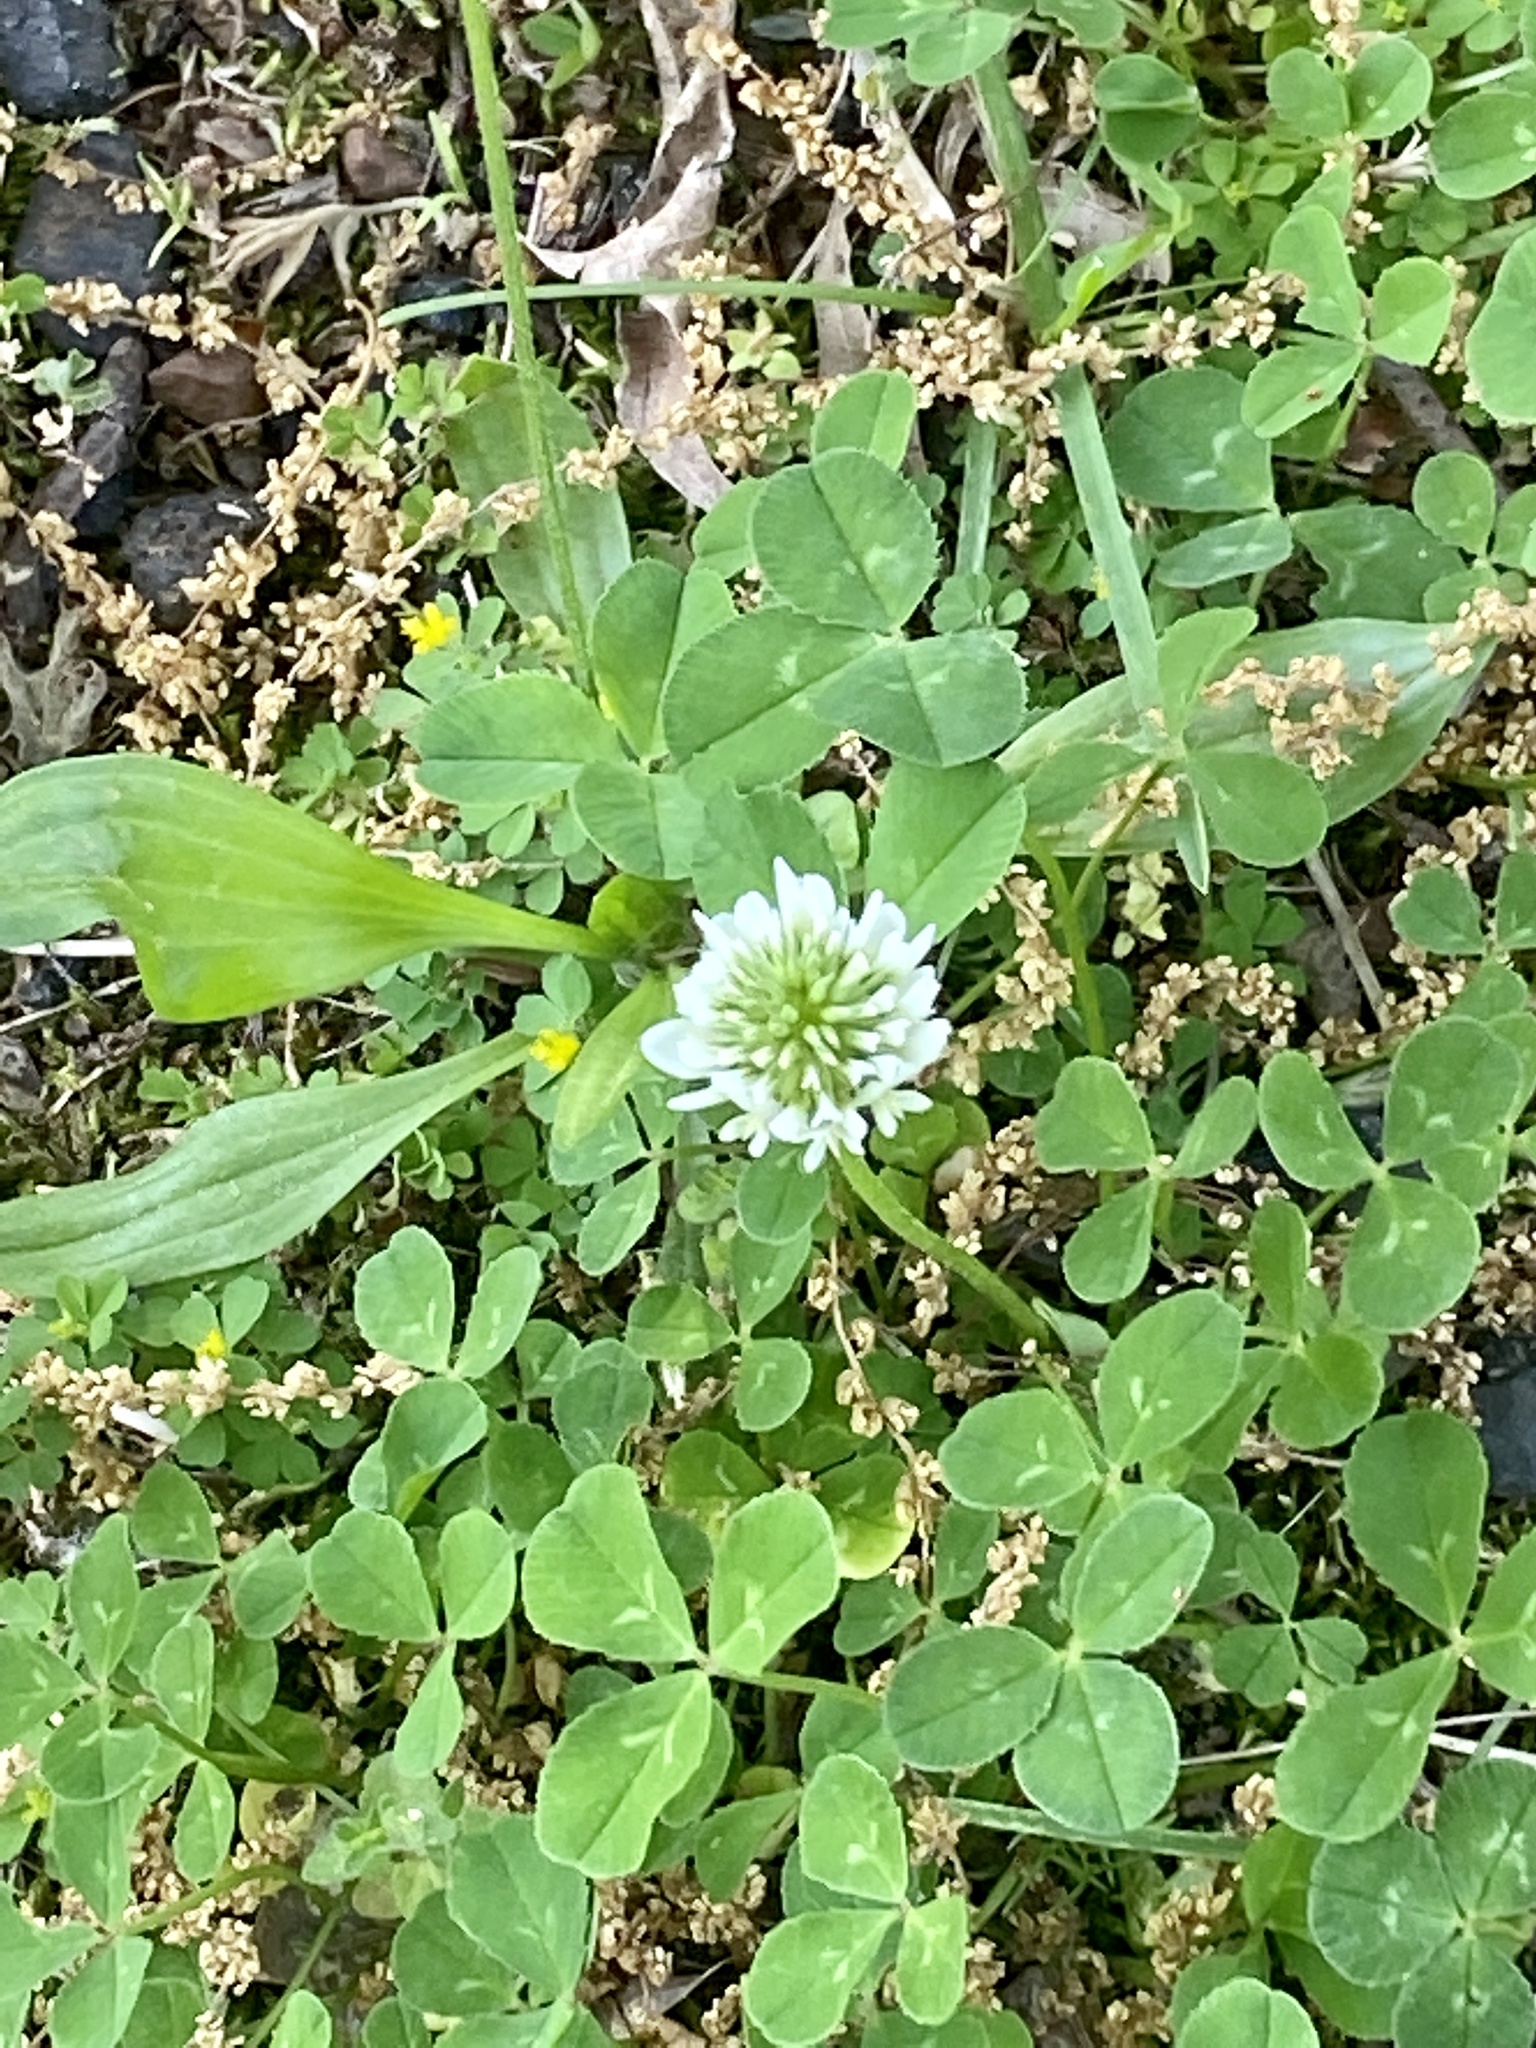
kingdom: Plantae
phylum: Tracheophyta
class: Magnoliopsida
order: Fabales
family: Fabaceae
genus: Trifolium
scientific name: Trifolium repens
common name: White clover
